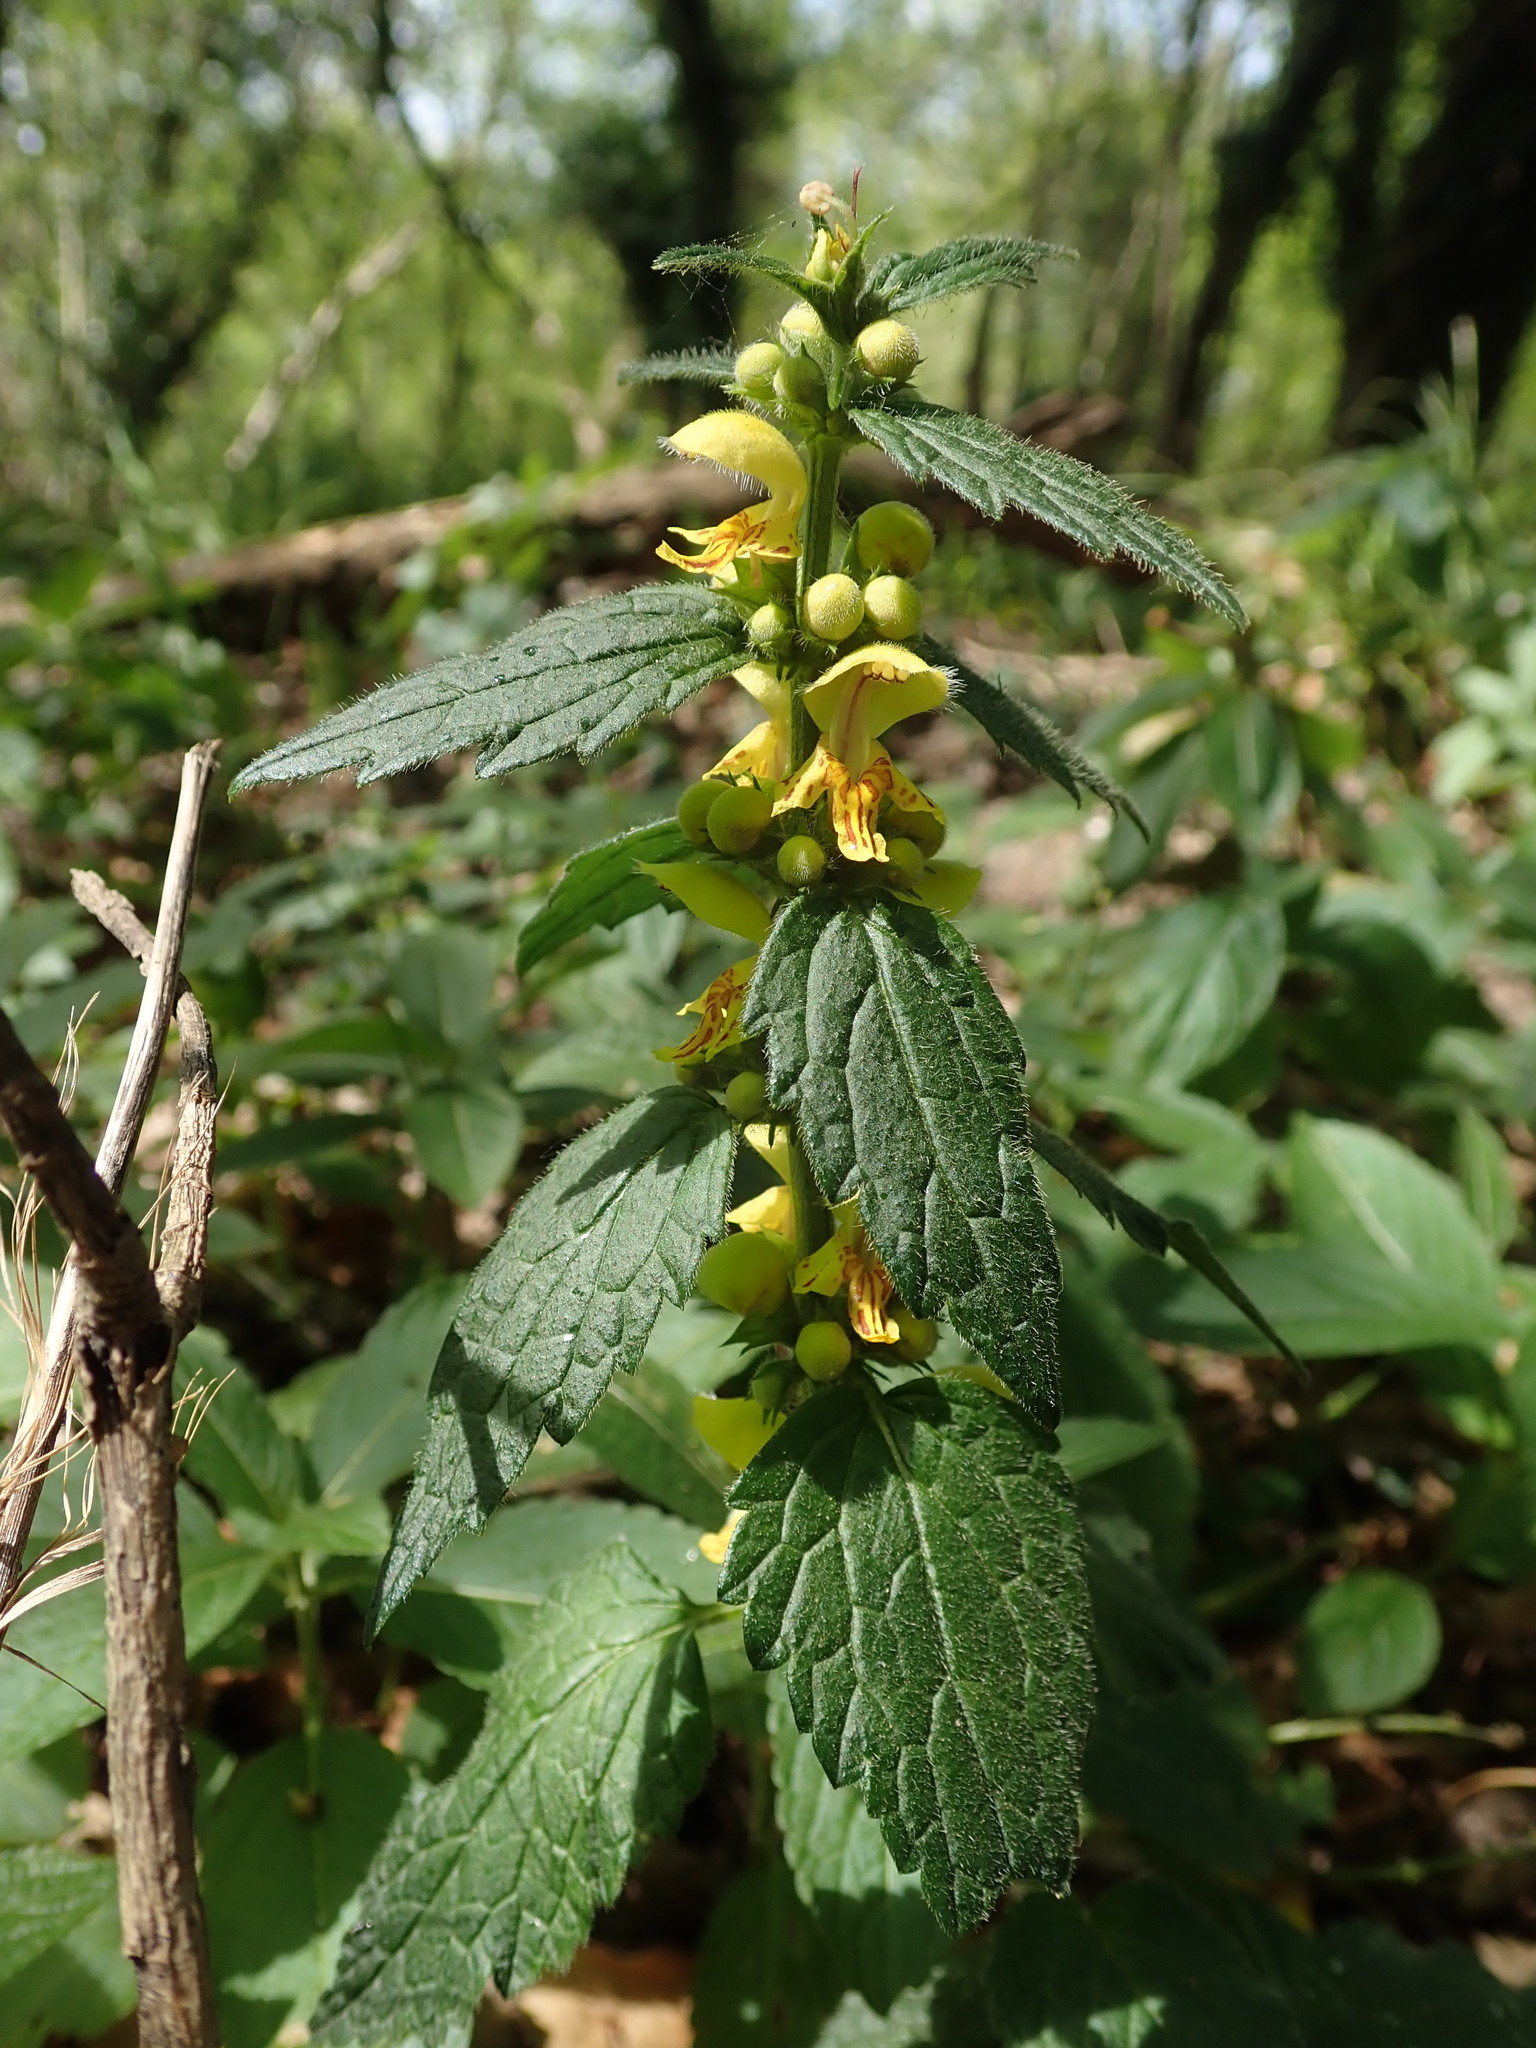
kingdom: Plantae
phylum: Tracheophyta
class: Magnoliopsida
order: Lamiales
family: Lamiaceae
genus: Lamium
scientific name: Lamium galeobdolon
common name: Yellow archangel
